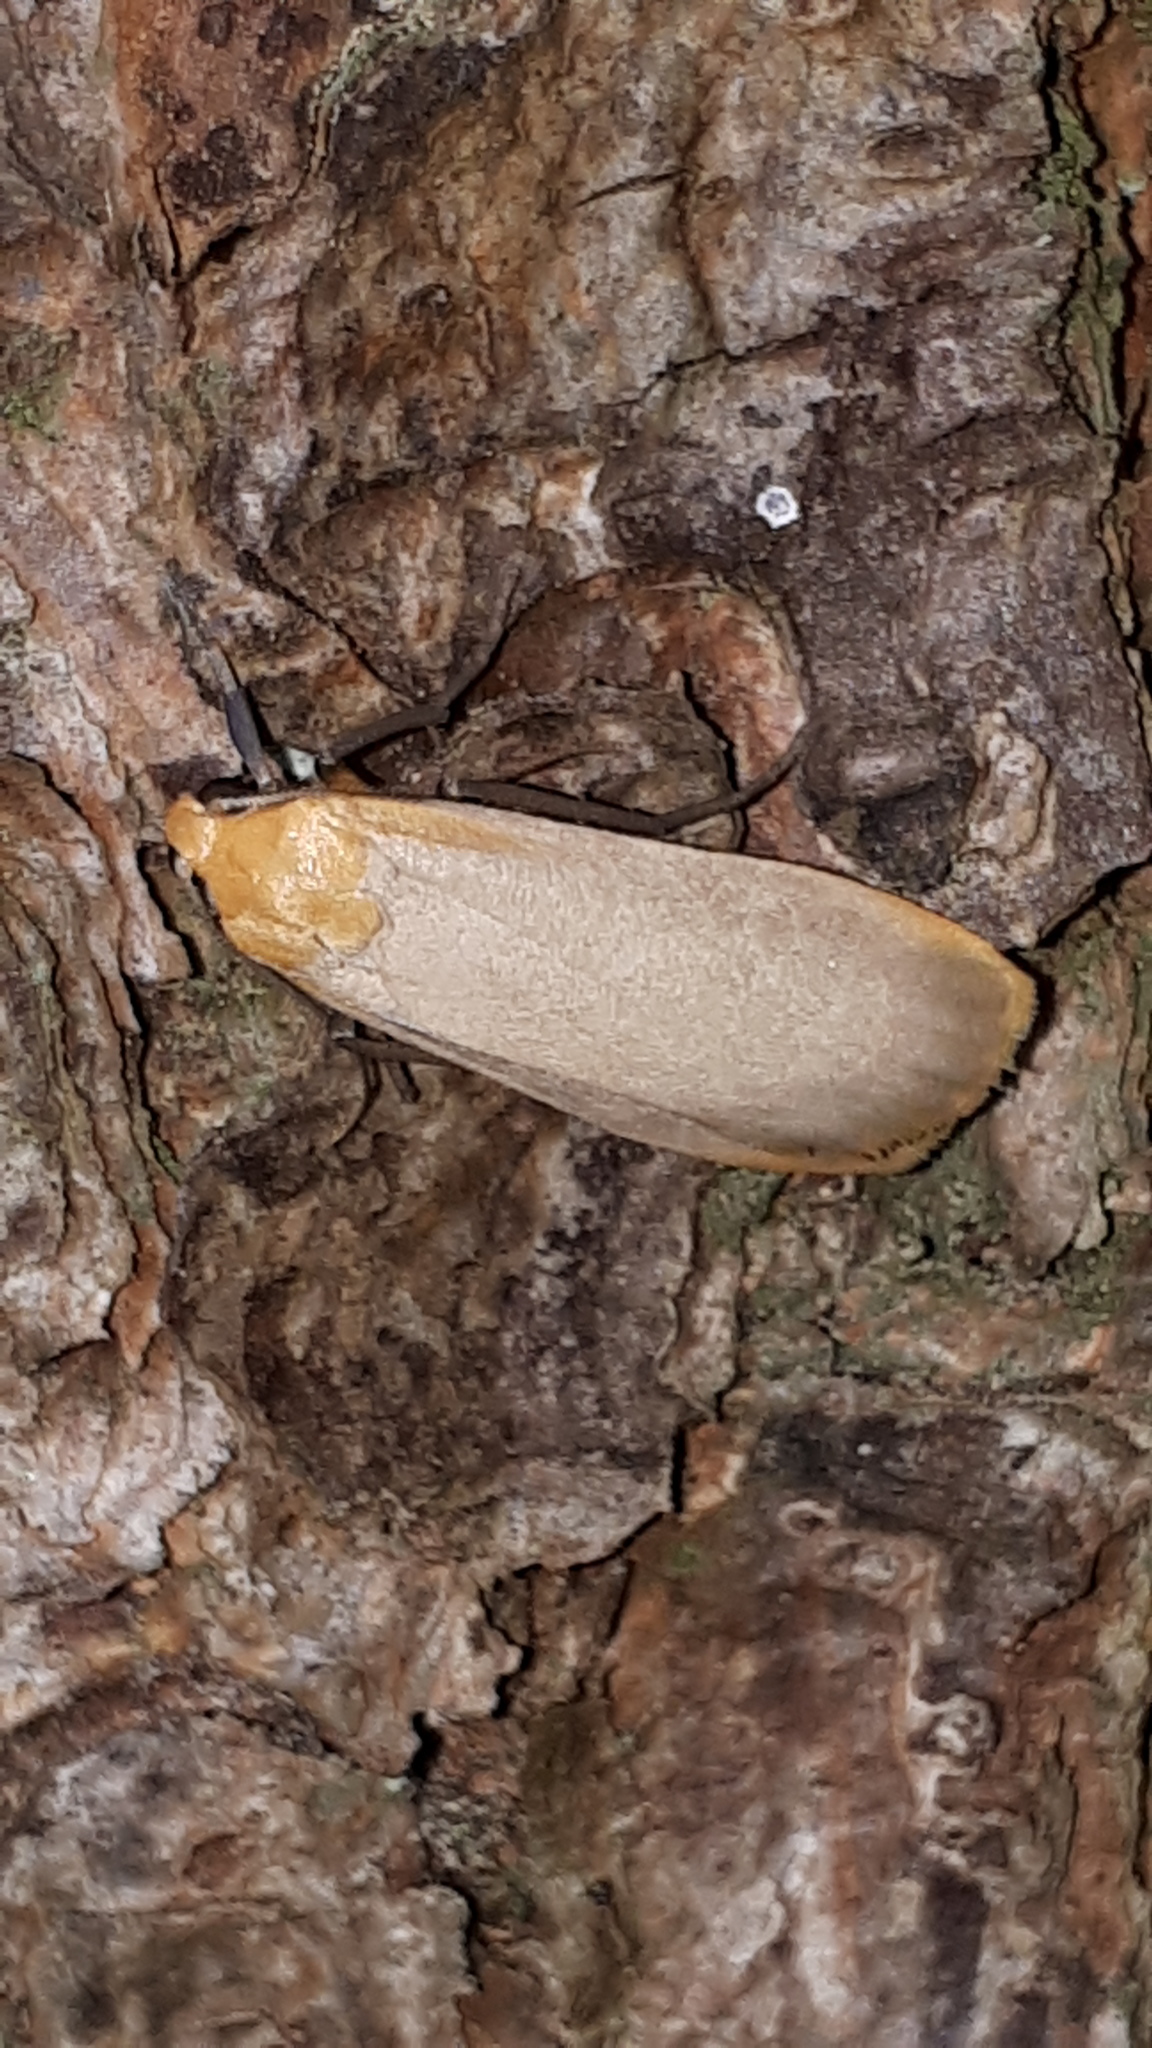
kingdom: Animalia
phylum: Arthropoda
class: Insecta
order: Lepidoptera
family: Erebidae
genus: Katha
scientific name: Katha depressa
